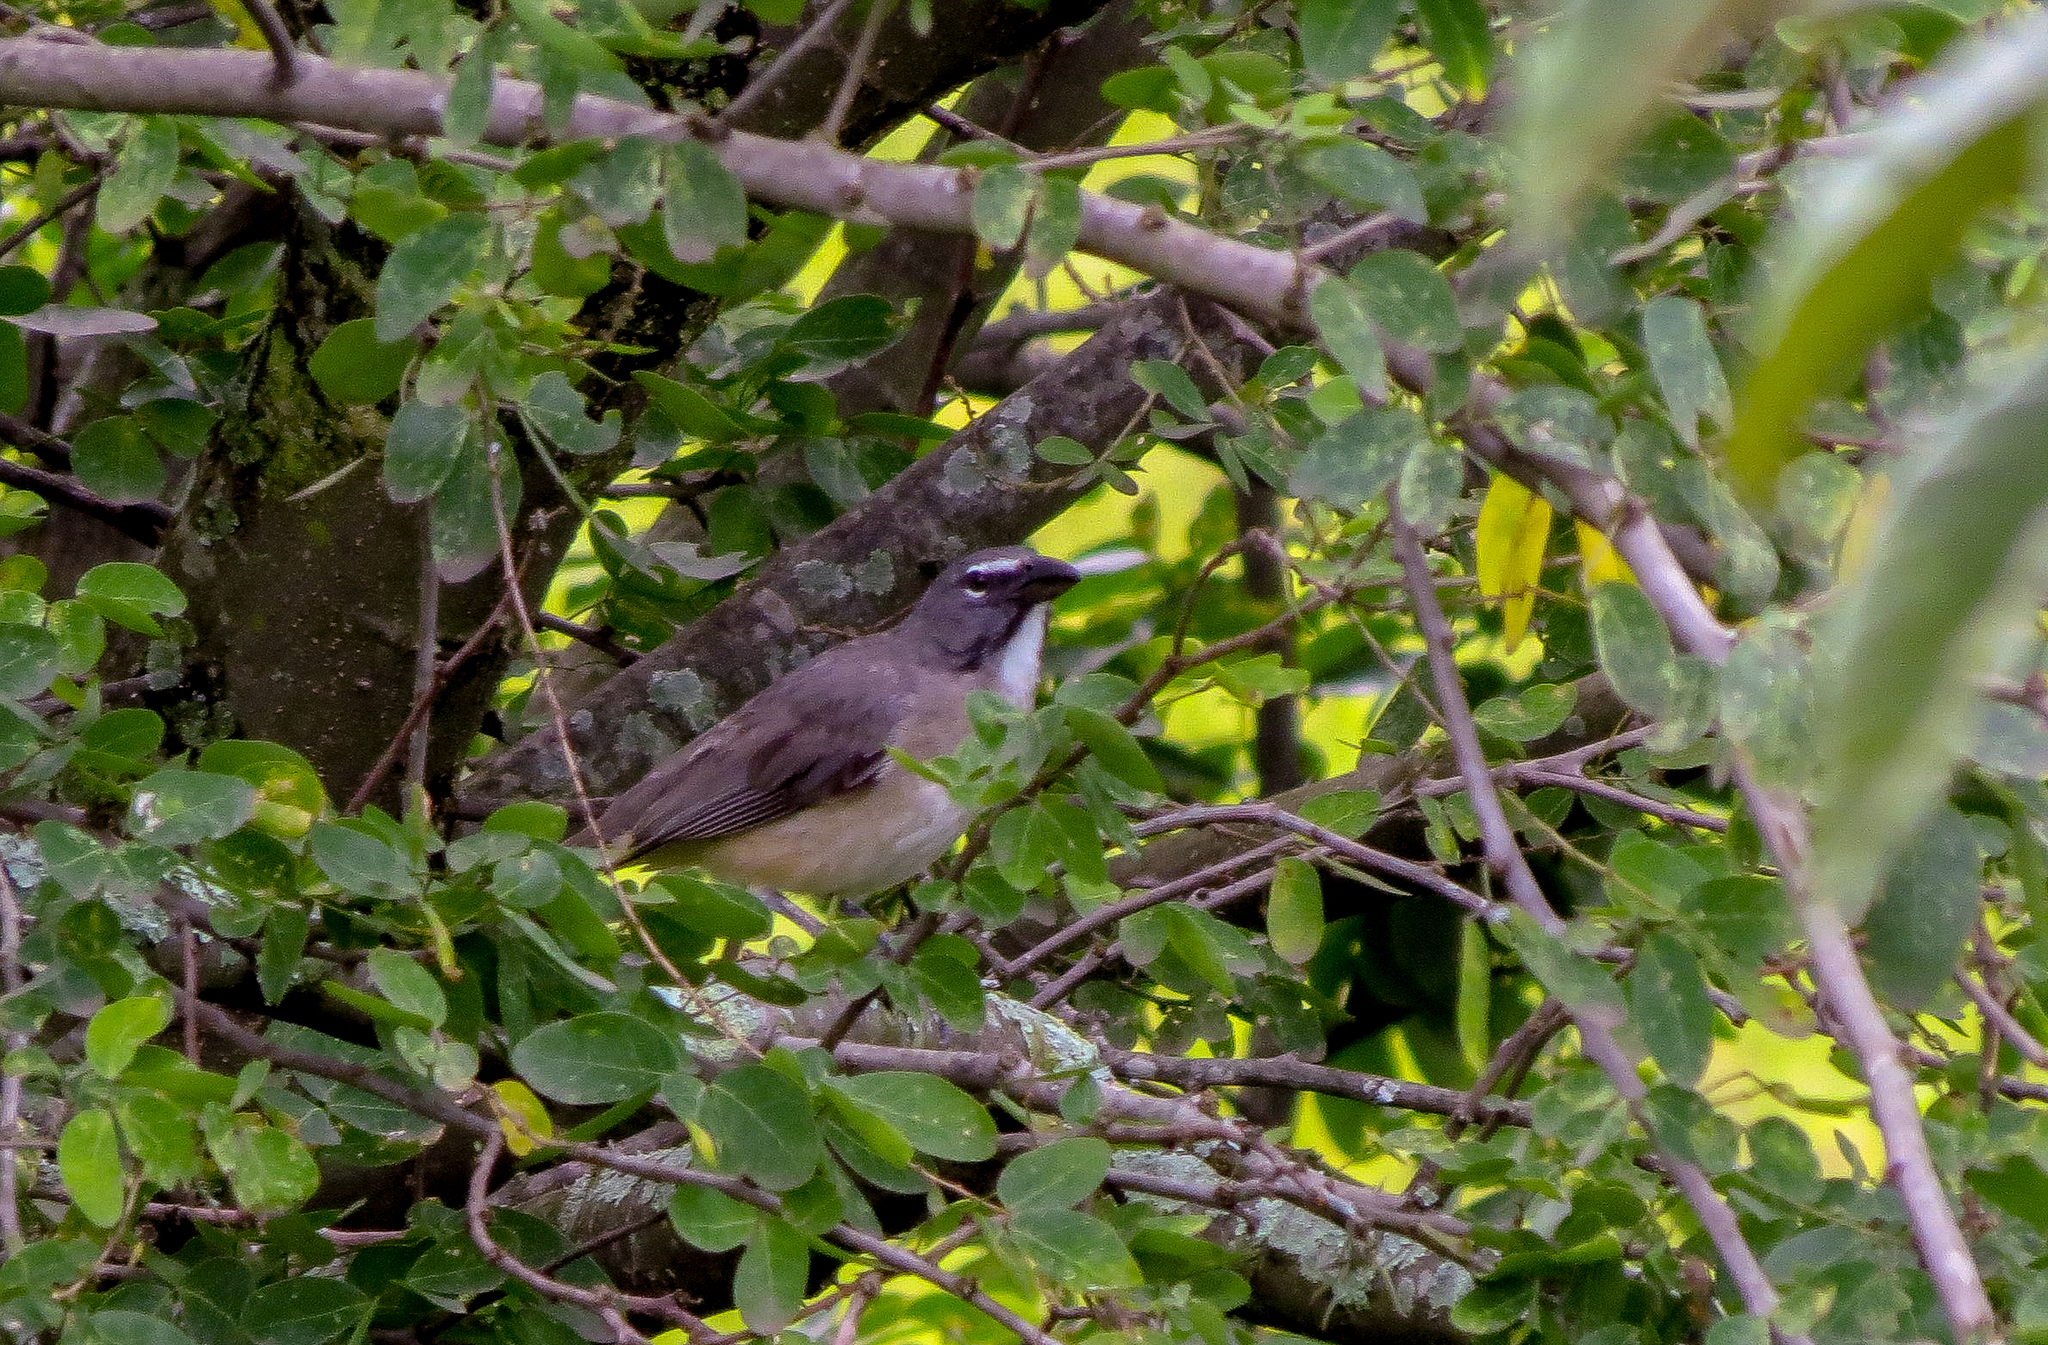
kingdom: Animalia
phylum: Chordata
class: Aves
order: Passeriformes
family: Thraupidae
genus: Saltator
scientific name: Saltator olivascens
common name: Caribbean grey saltator
